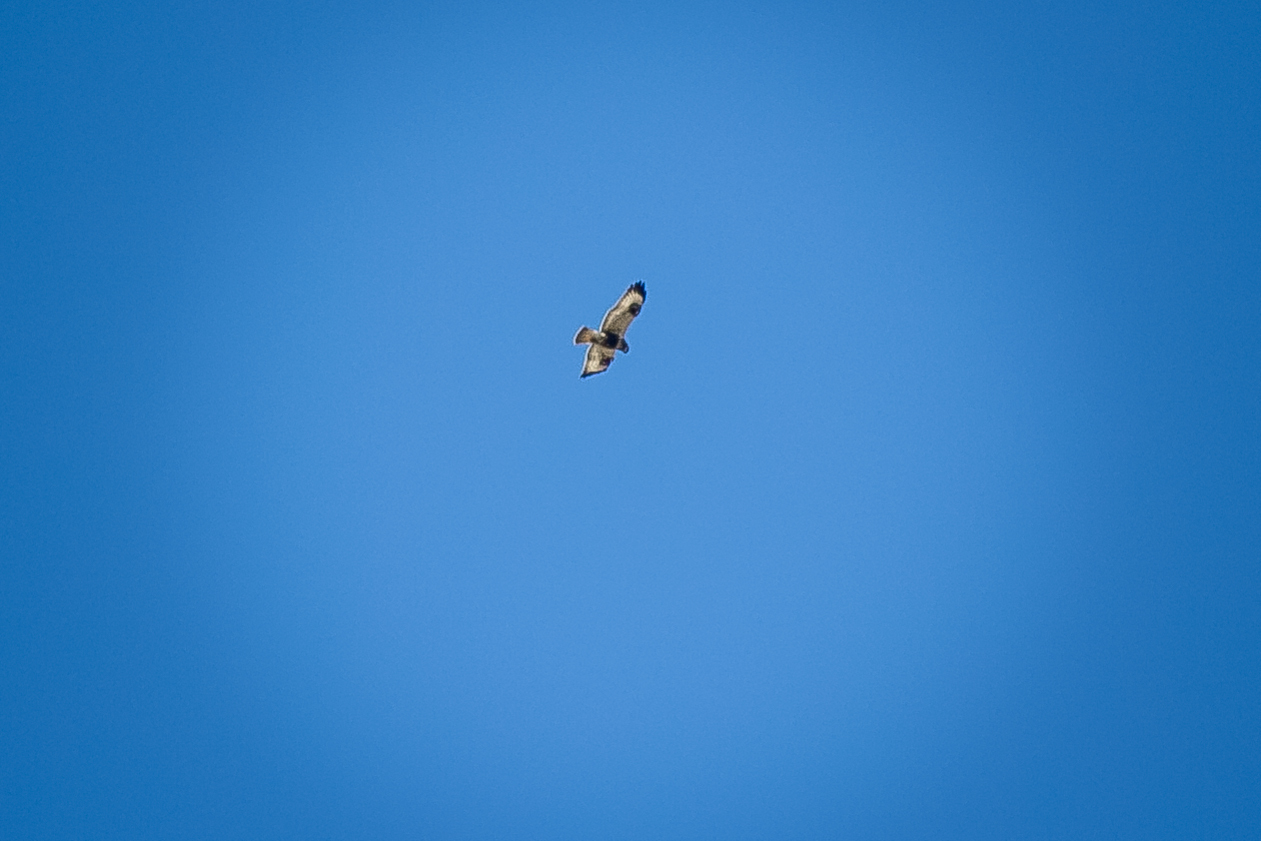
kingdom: Animalia
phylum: Chordata
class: Aves
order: Accipitriformes
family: Accipitridae
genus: Buteo
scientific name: Buteo lagopus
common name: Rough-legged buzzard
